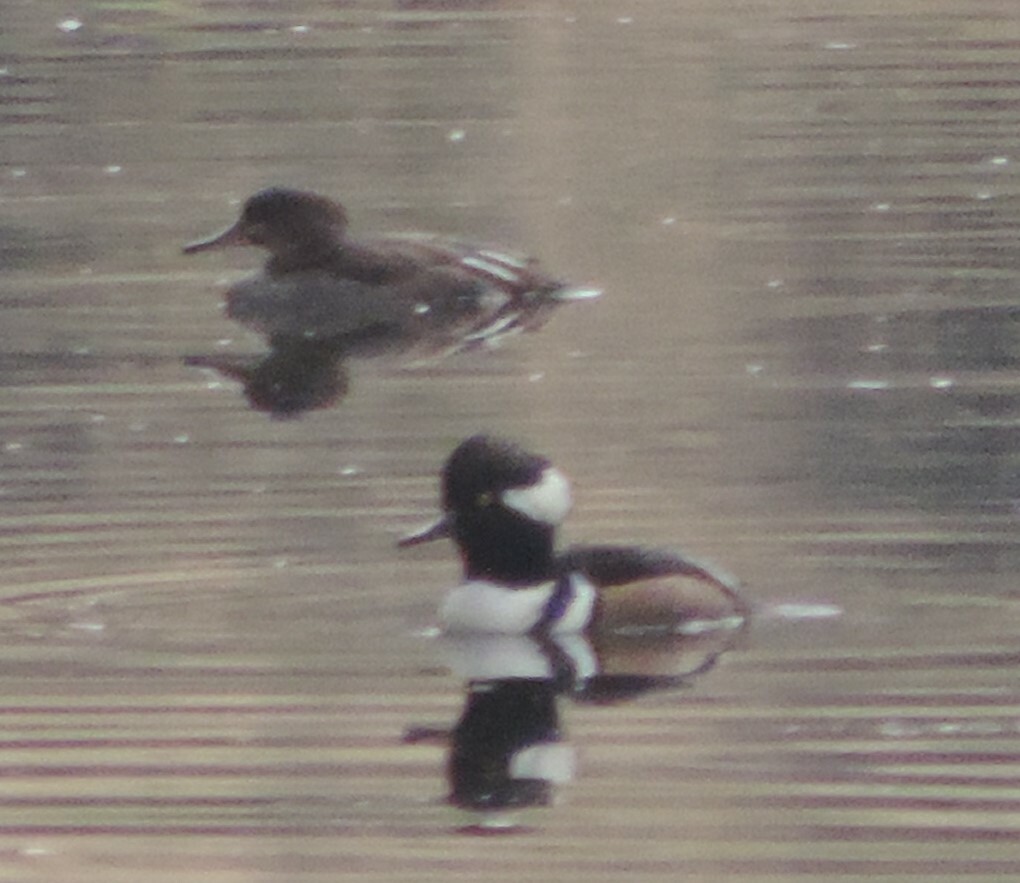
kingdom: Animalia
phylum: Chordata
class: Aves
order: Anseriformes
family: Anatidae
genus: Lophodytes
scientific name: Lophodytes cucullatus
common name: Hooded merganser
